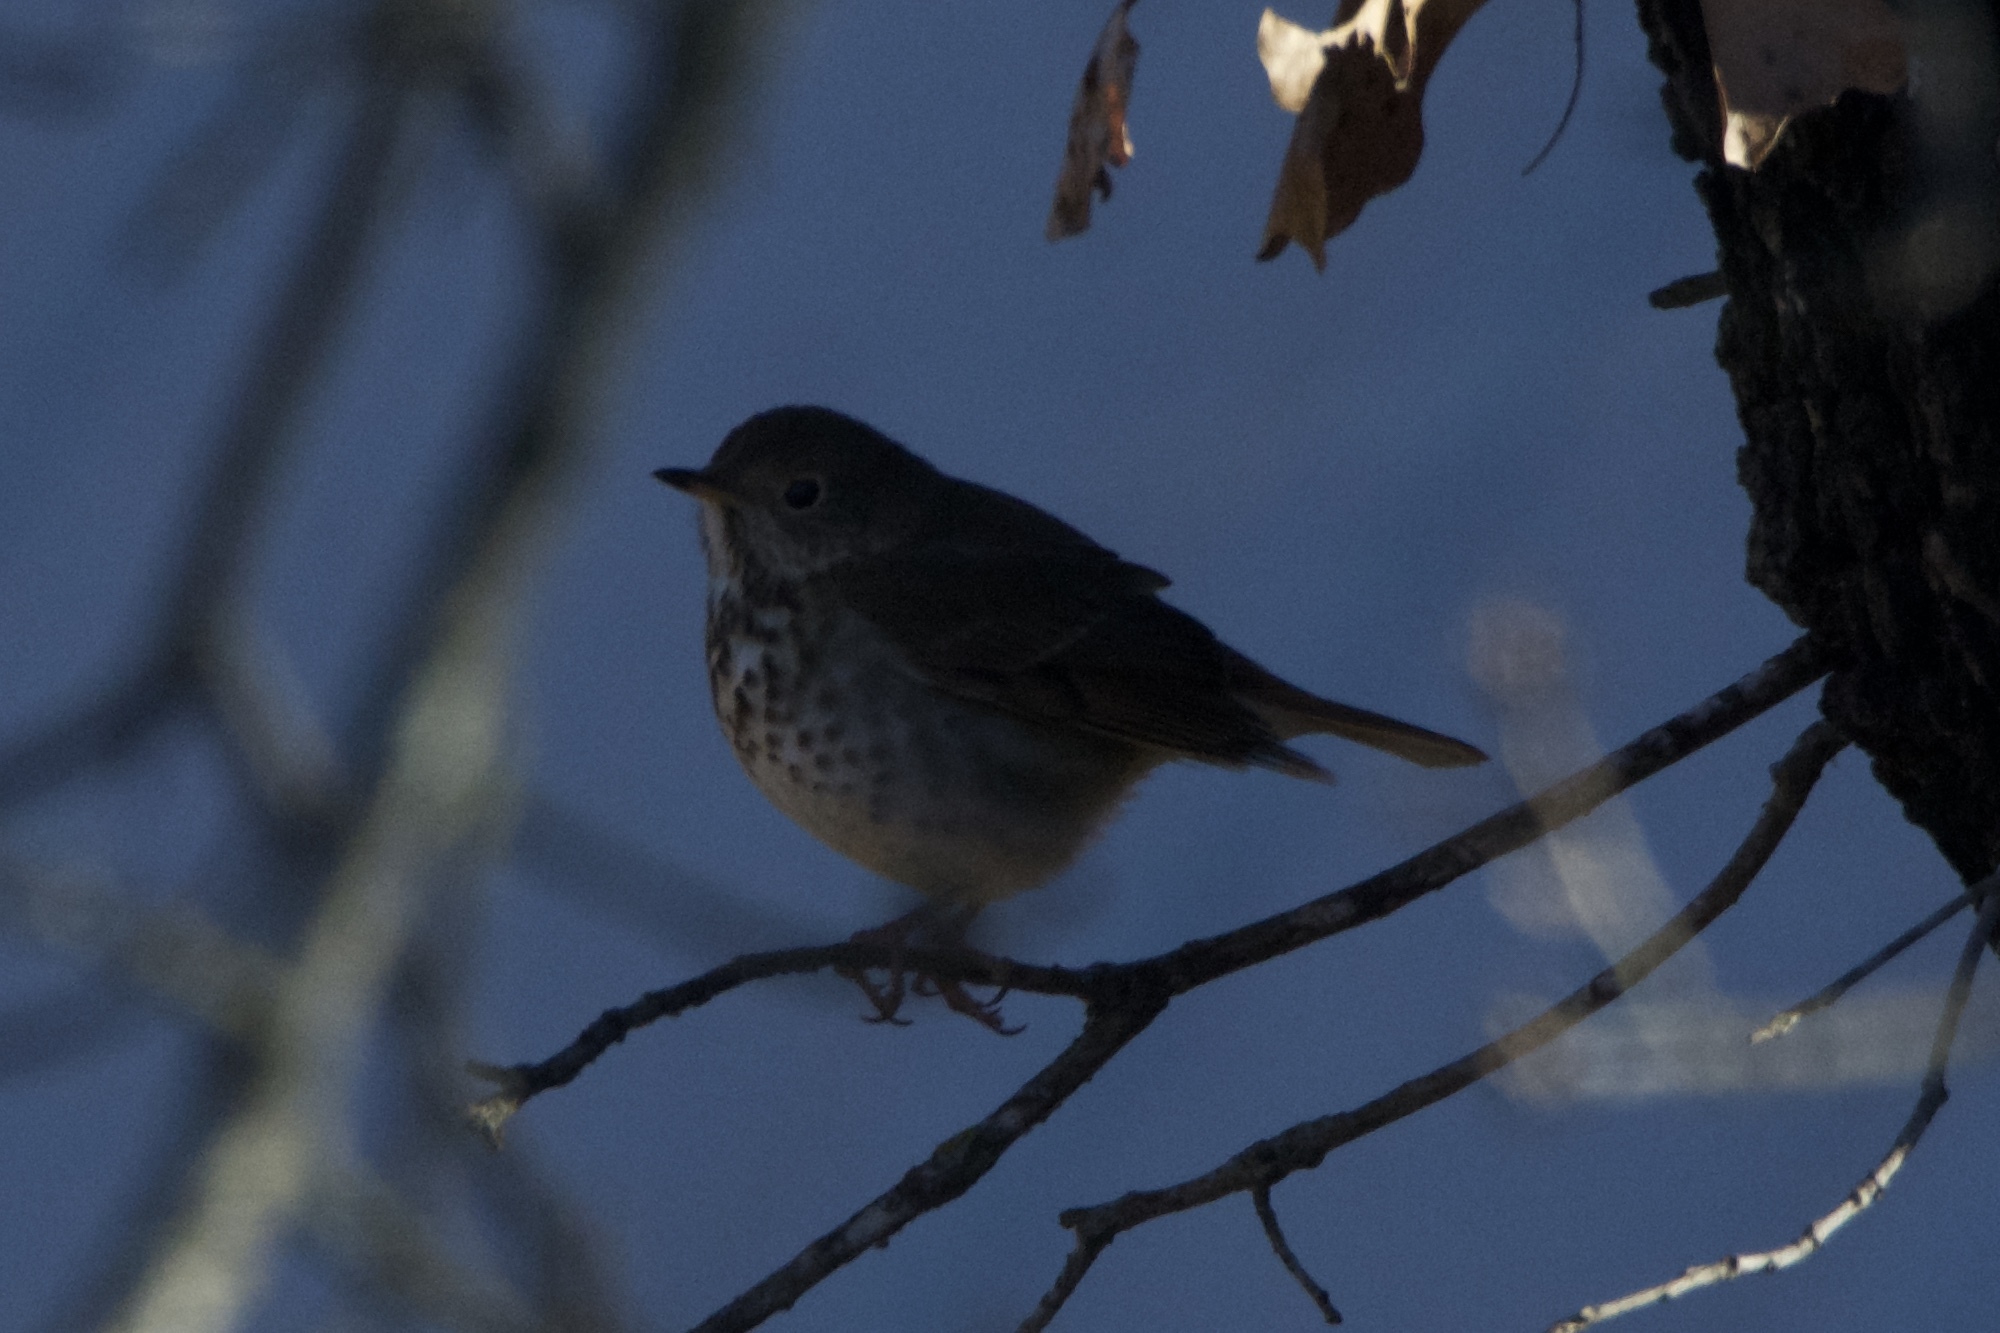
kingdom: Animalia
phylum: Chordata
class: Aves
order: Passeriformes
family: Turdidae
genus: Catharus
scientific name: Catharus guttatus
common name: Hermit thrush
